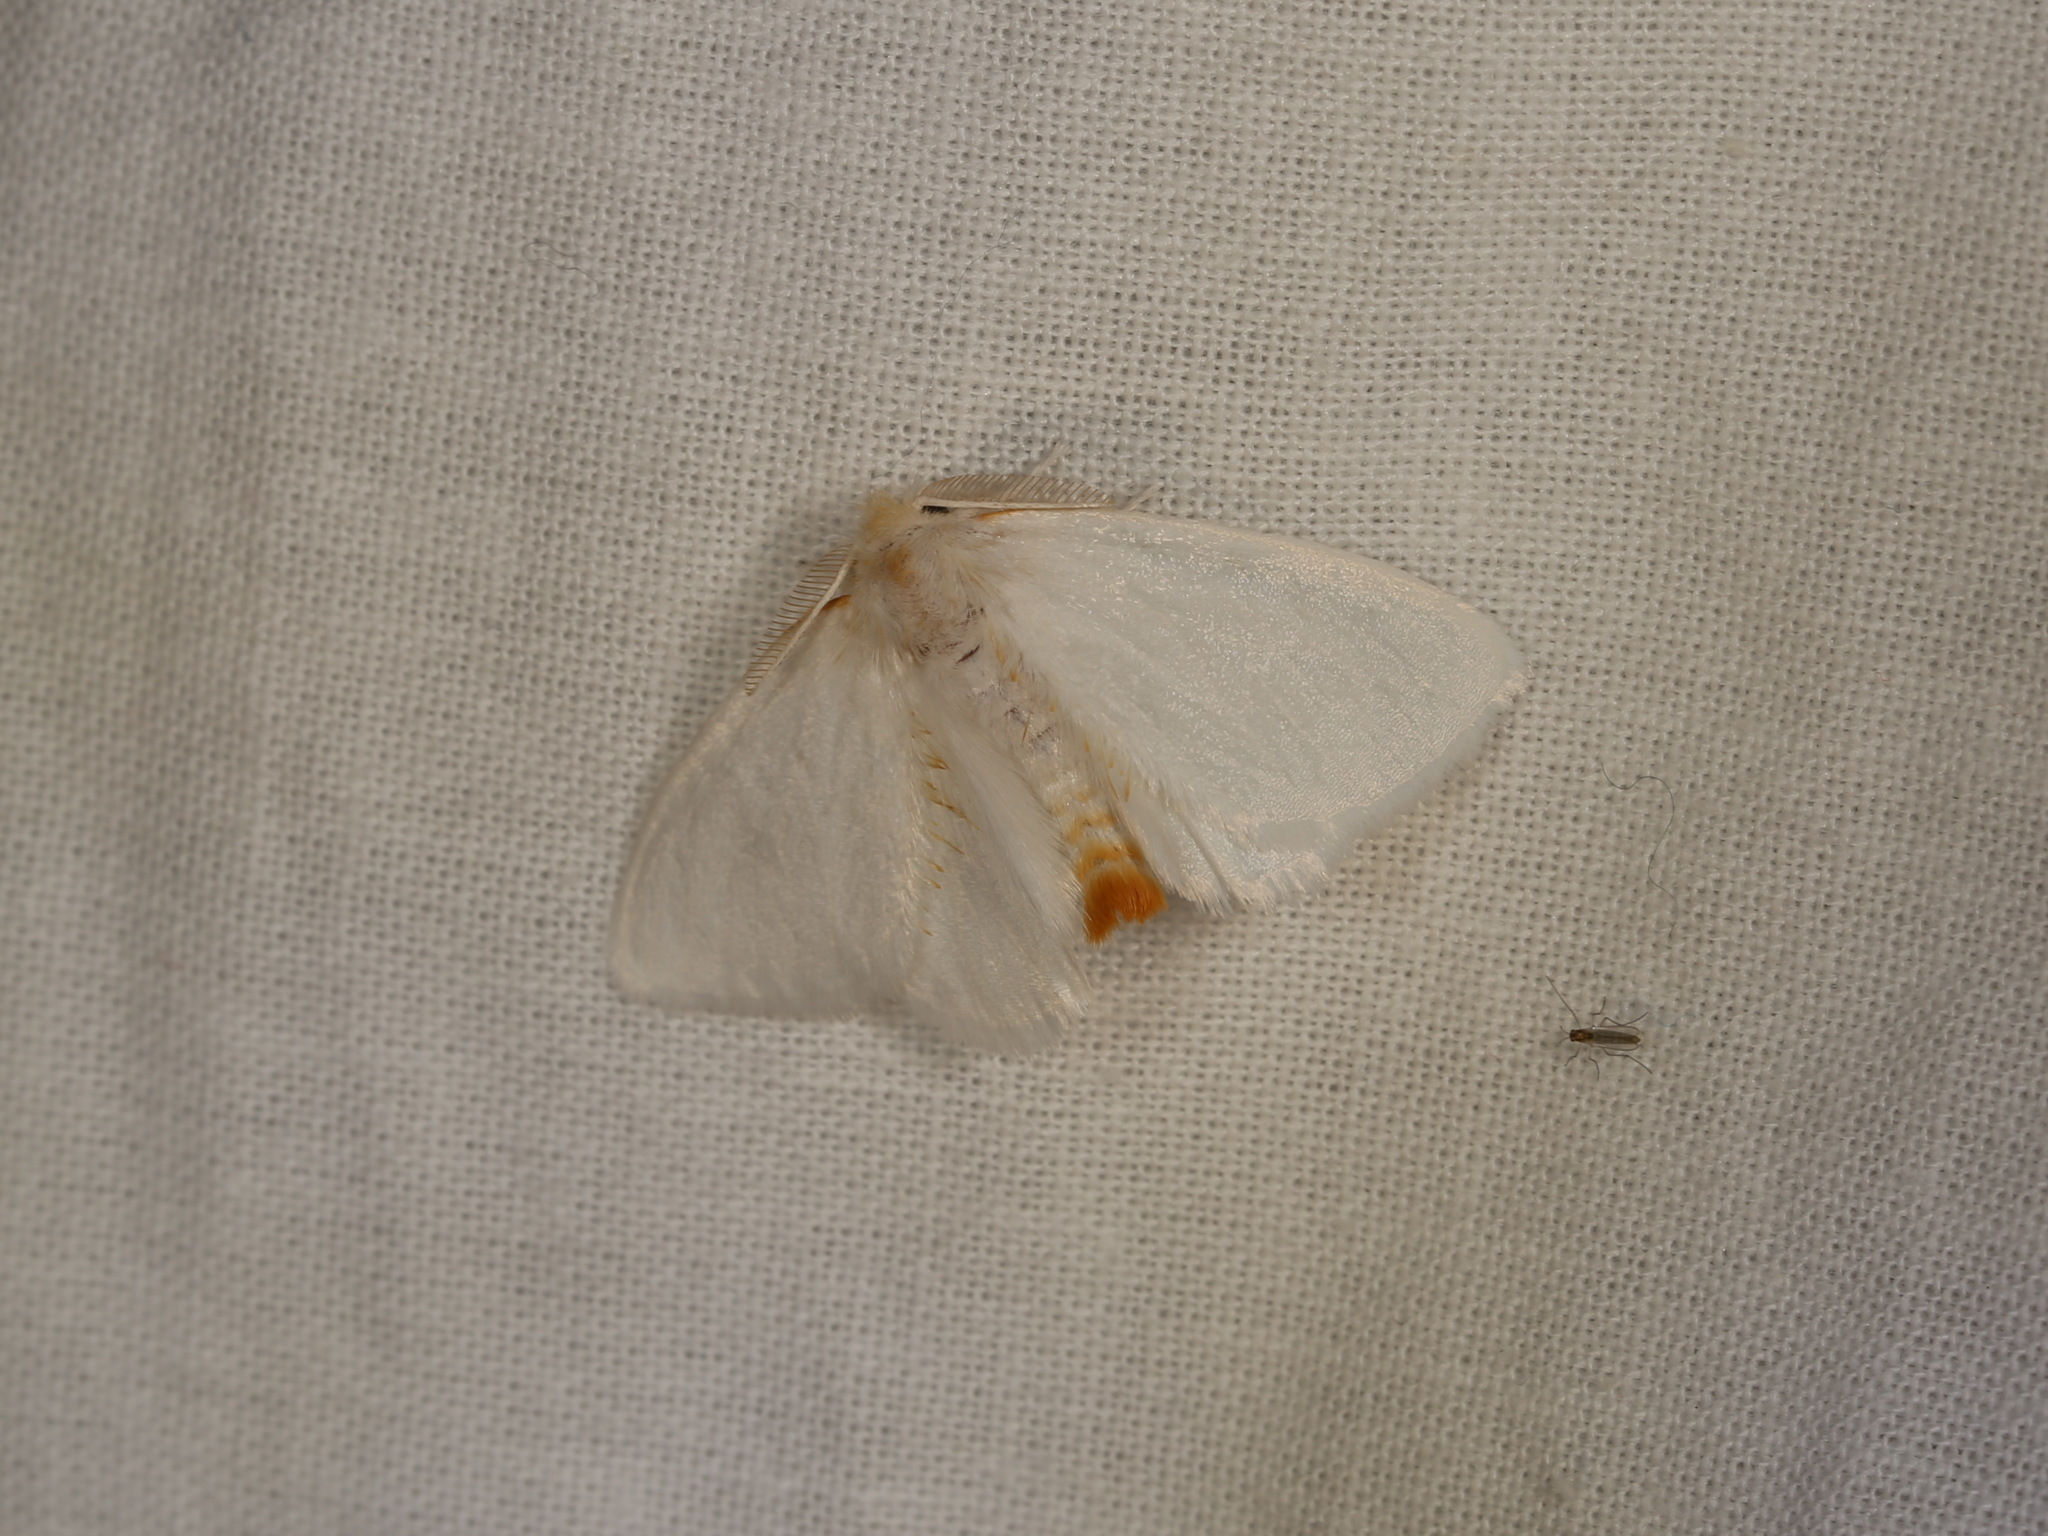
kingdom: Animalia
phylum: Arthropoda
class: Insecta
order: Lepidoptera
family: Erebidae
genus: Acyphas
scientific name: Acyphas chionitis
